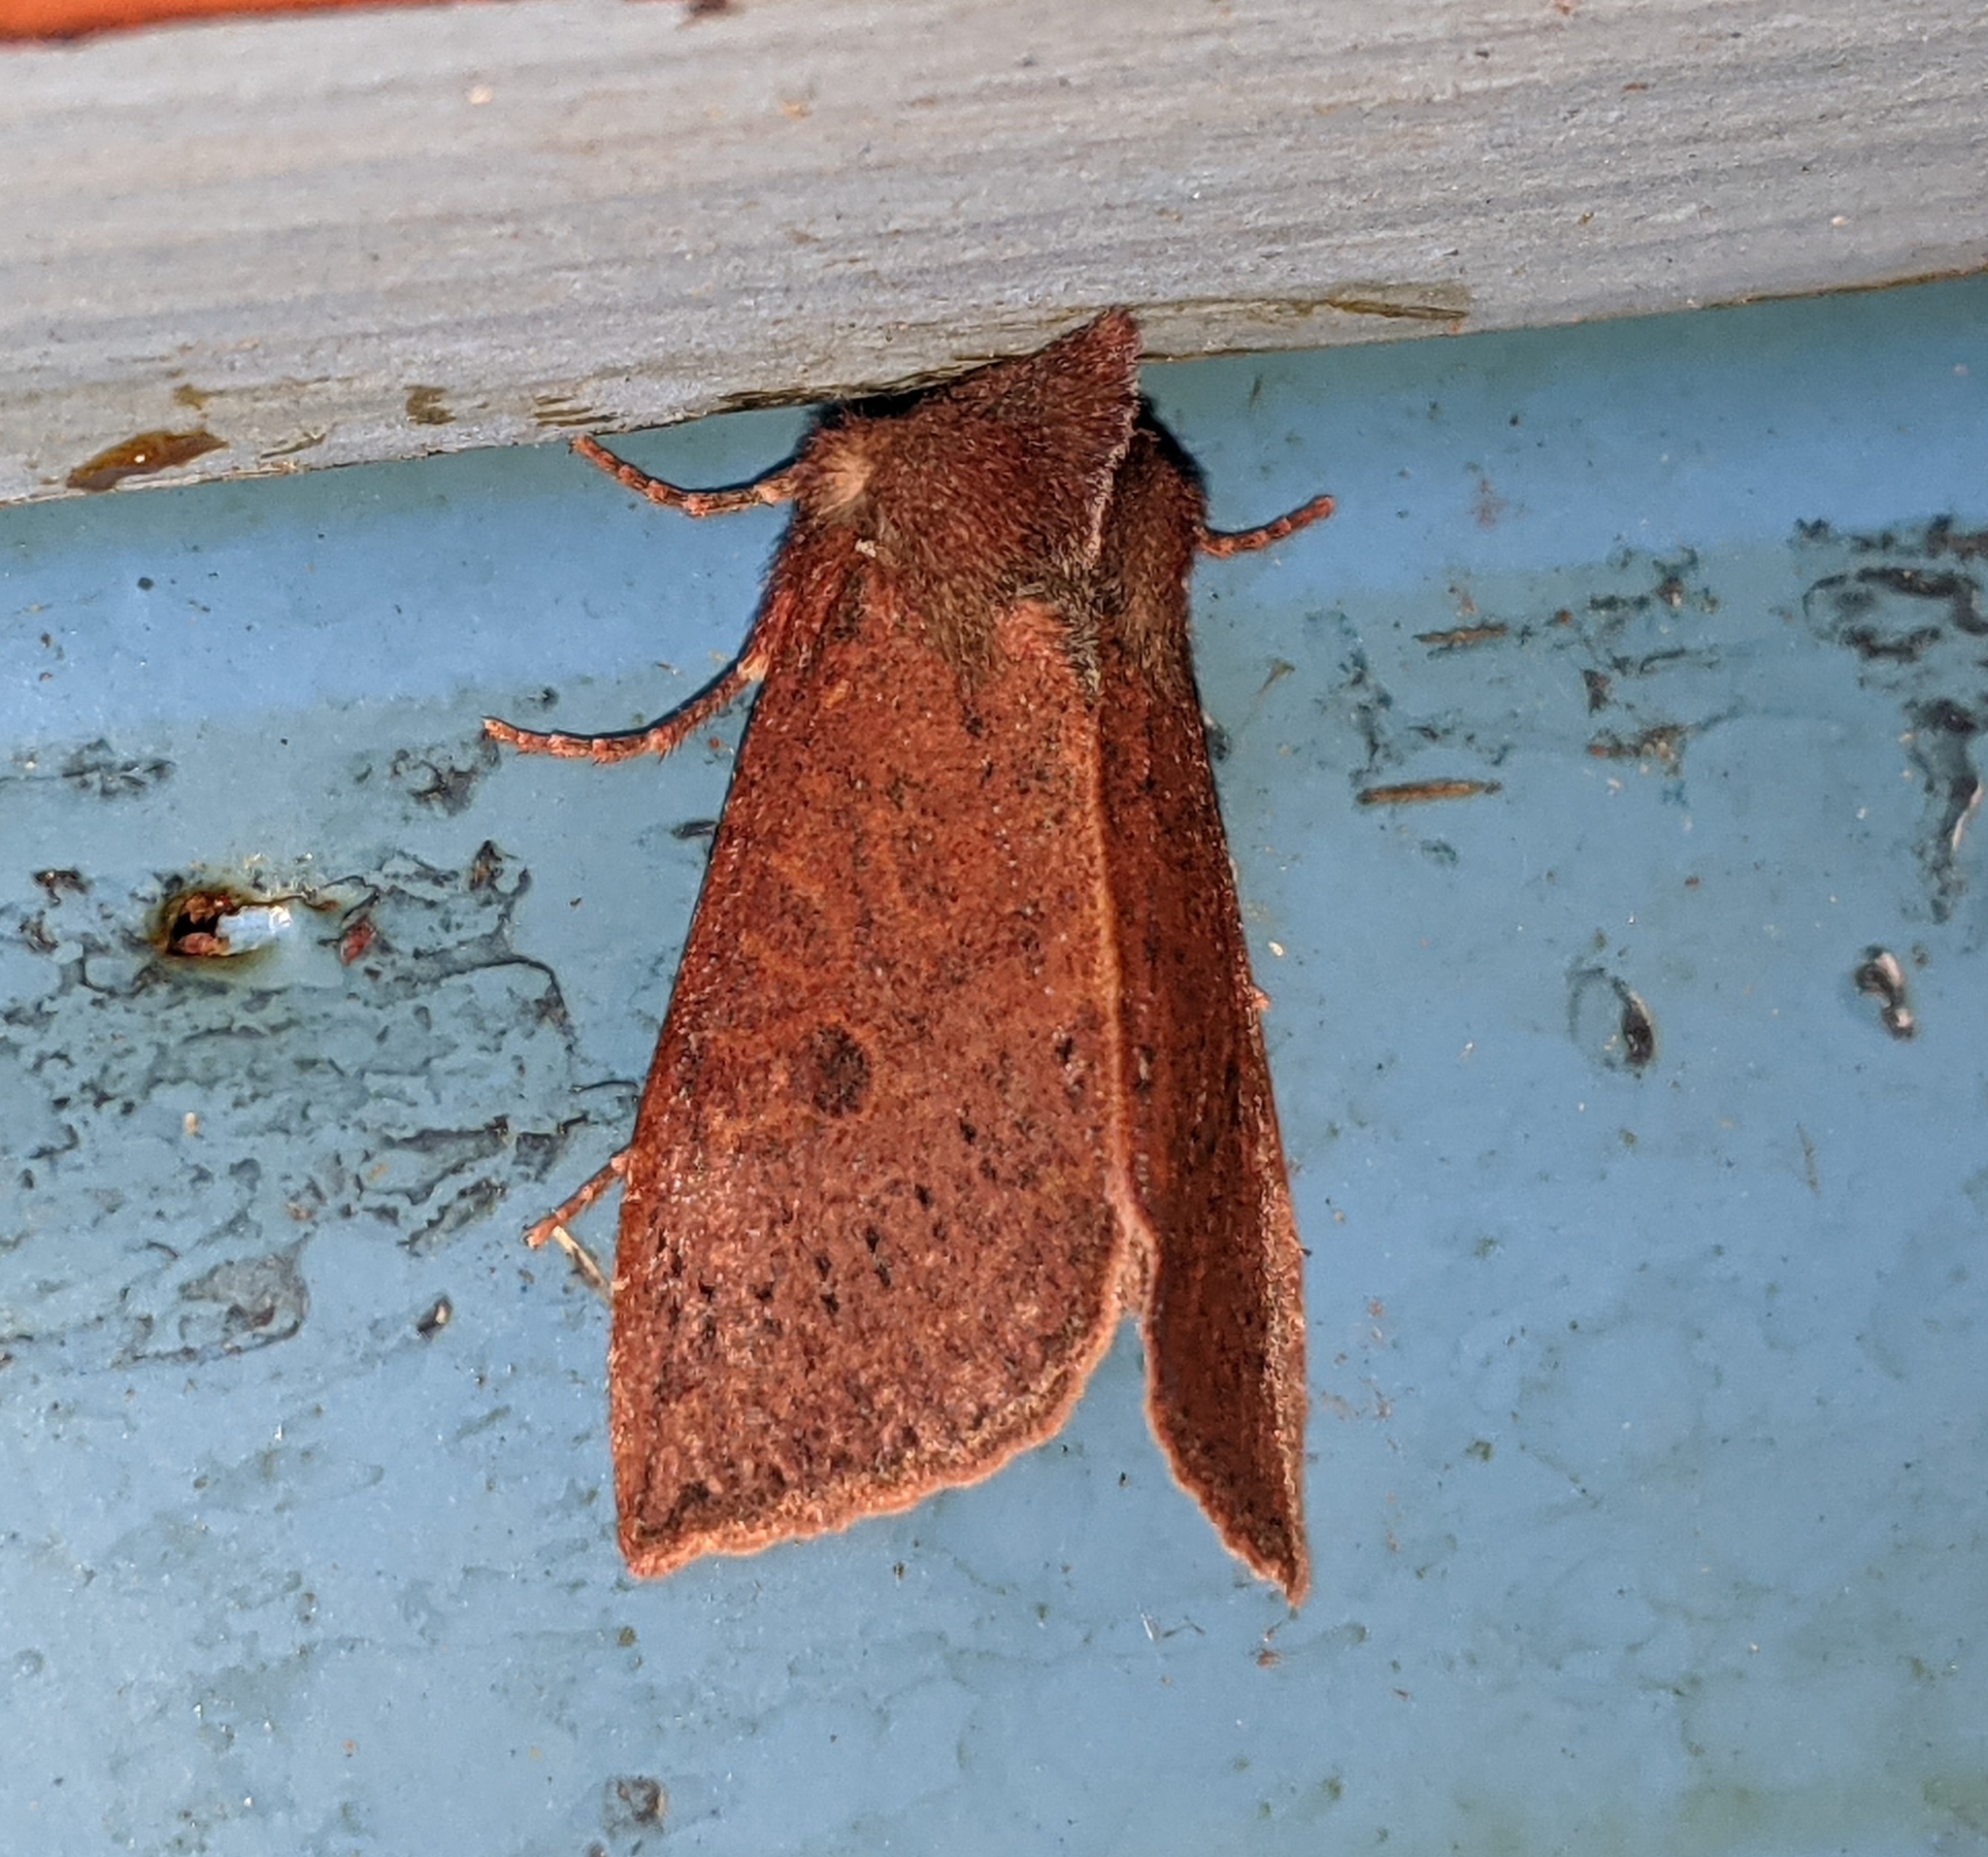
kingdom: Animalia
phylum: Arthropoda
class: Insecta
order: Lepidoptera
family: Noctuidae
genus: Orthosia
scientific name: Orthosia transparens
